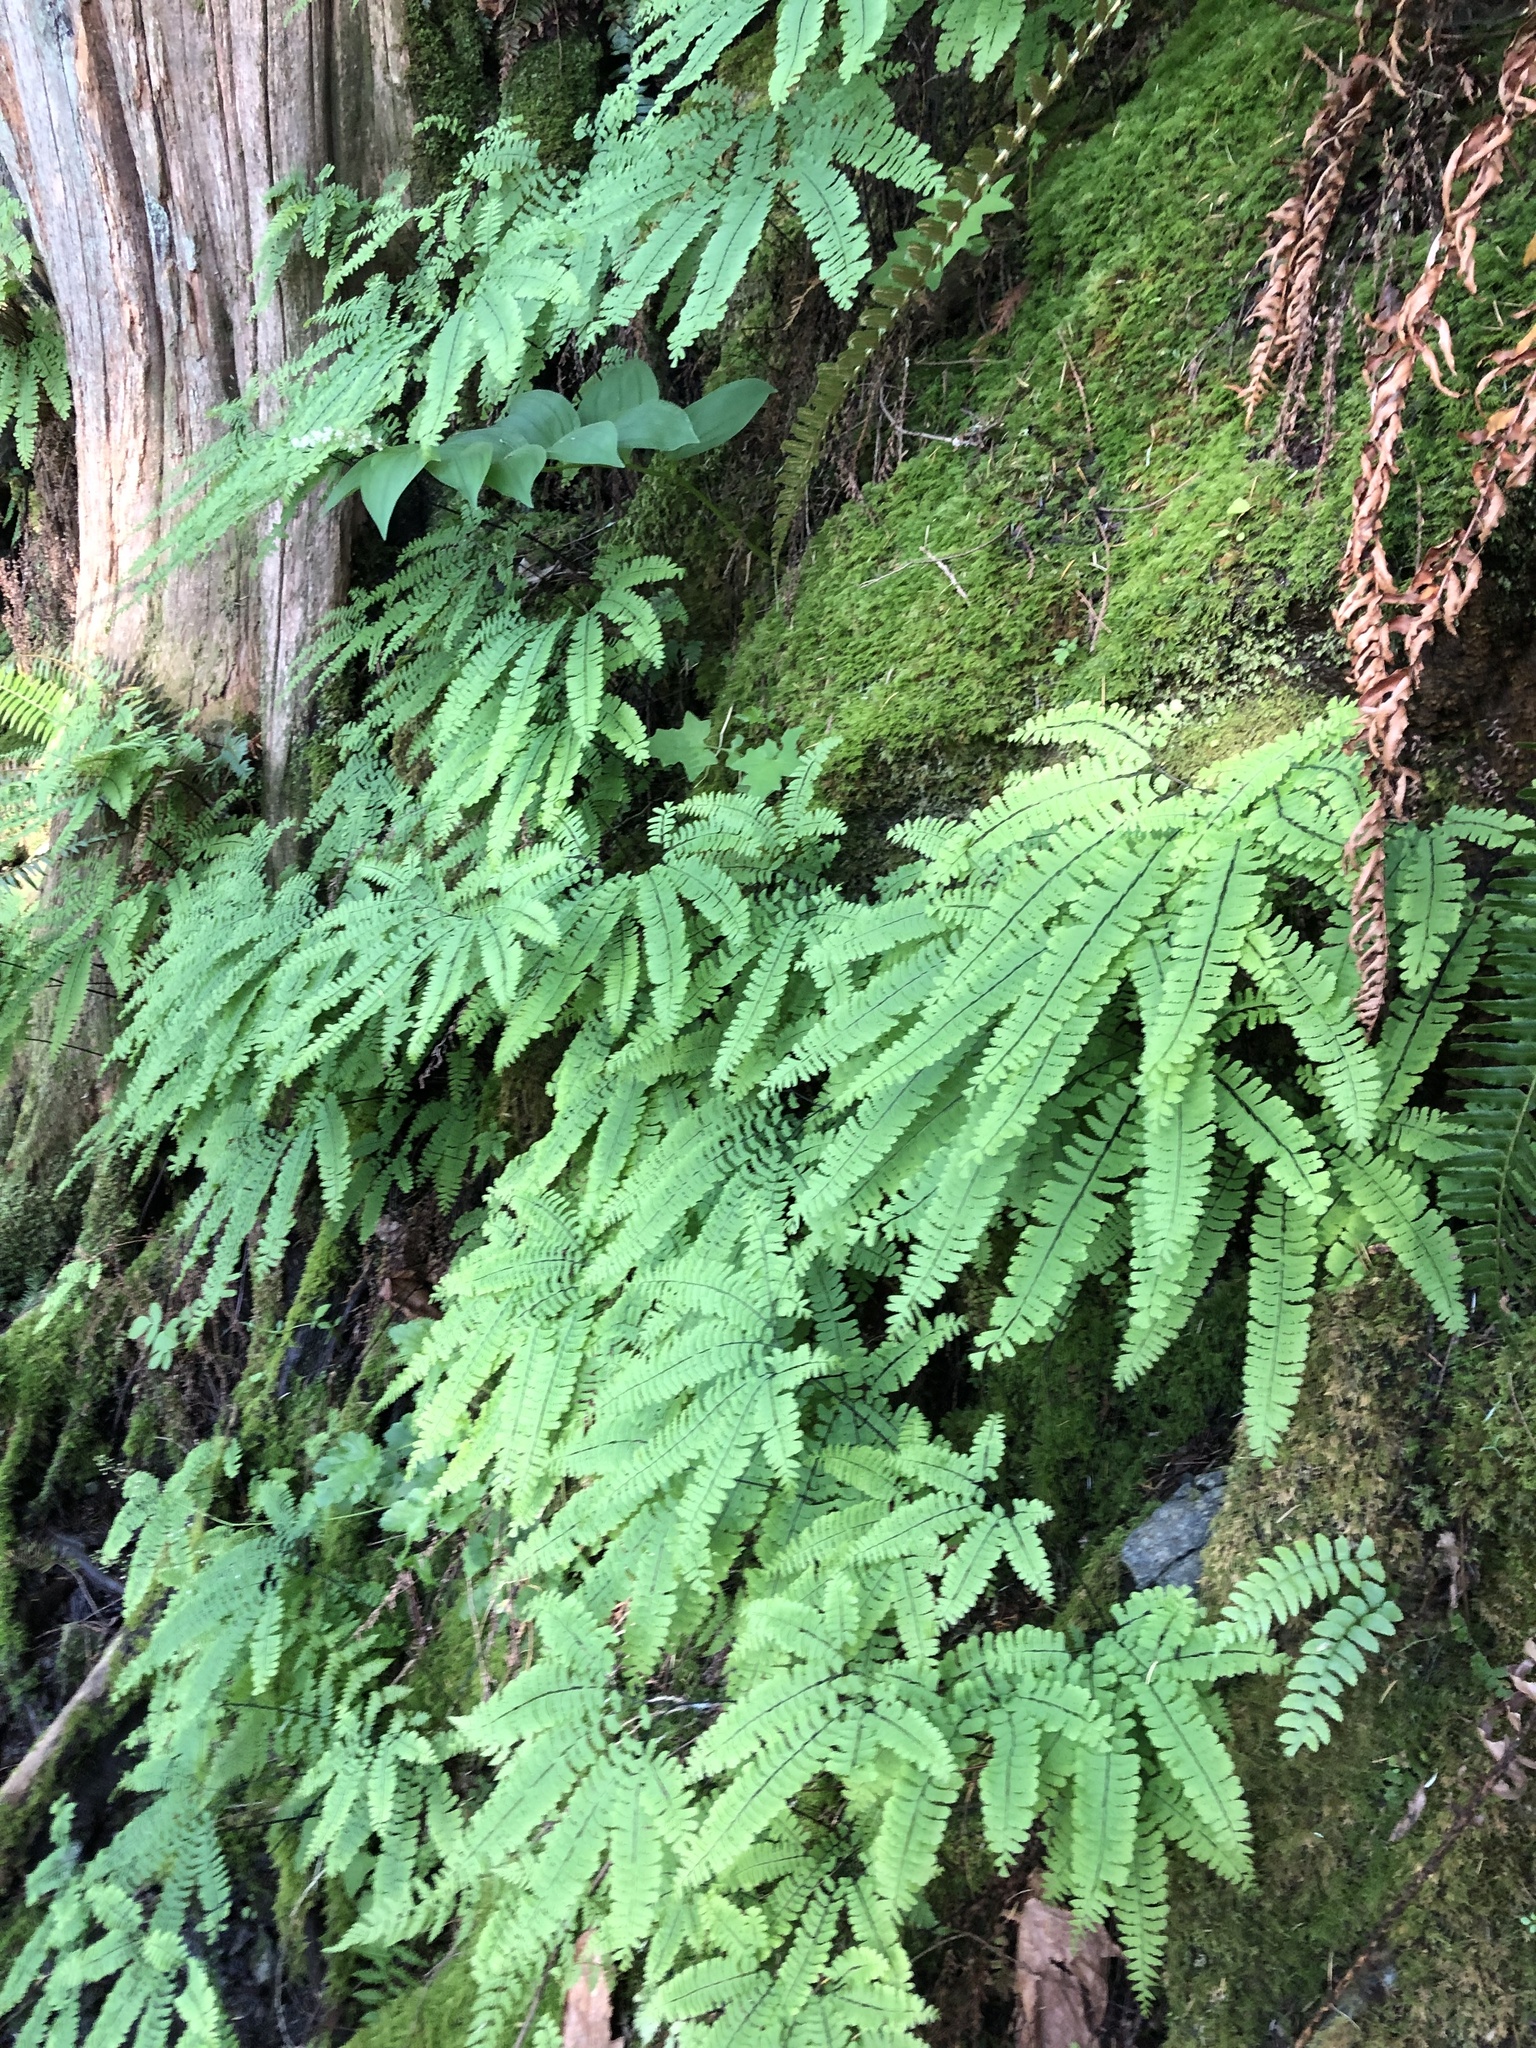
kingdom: Plantae
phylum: Tracheophyta
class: Polypodiopsida
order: Polypodiales
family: Pteridaceae
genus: Adiantum
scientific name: Adiantum aleuticum
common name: Aleutian maidenhair fern
